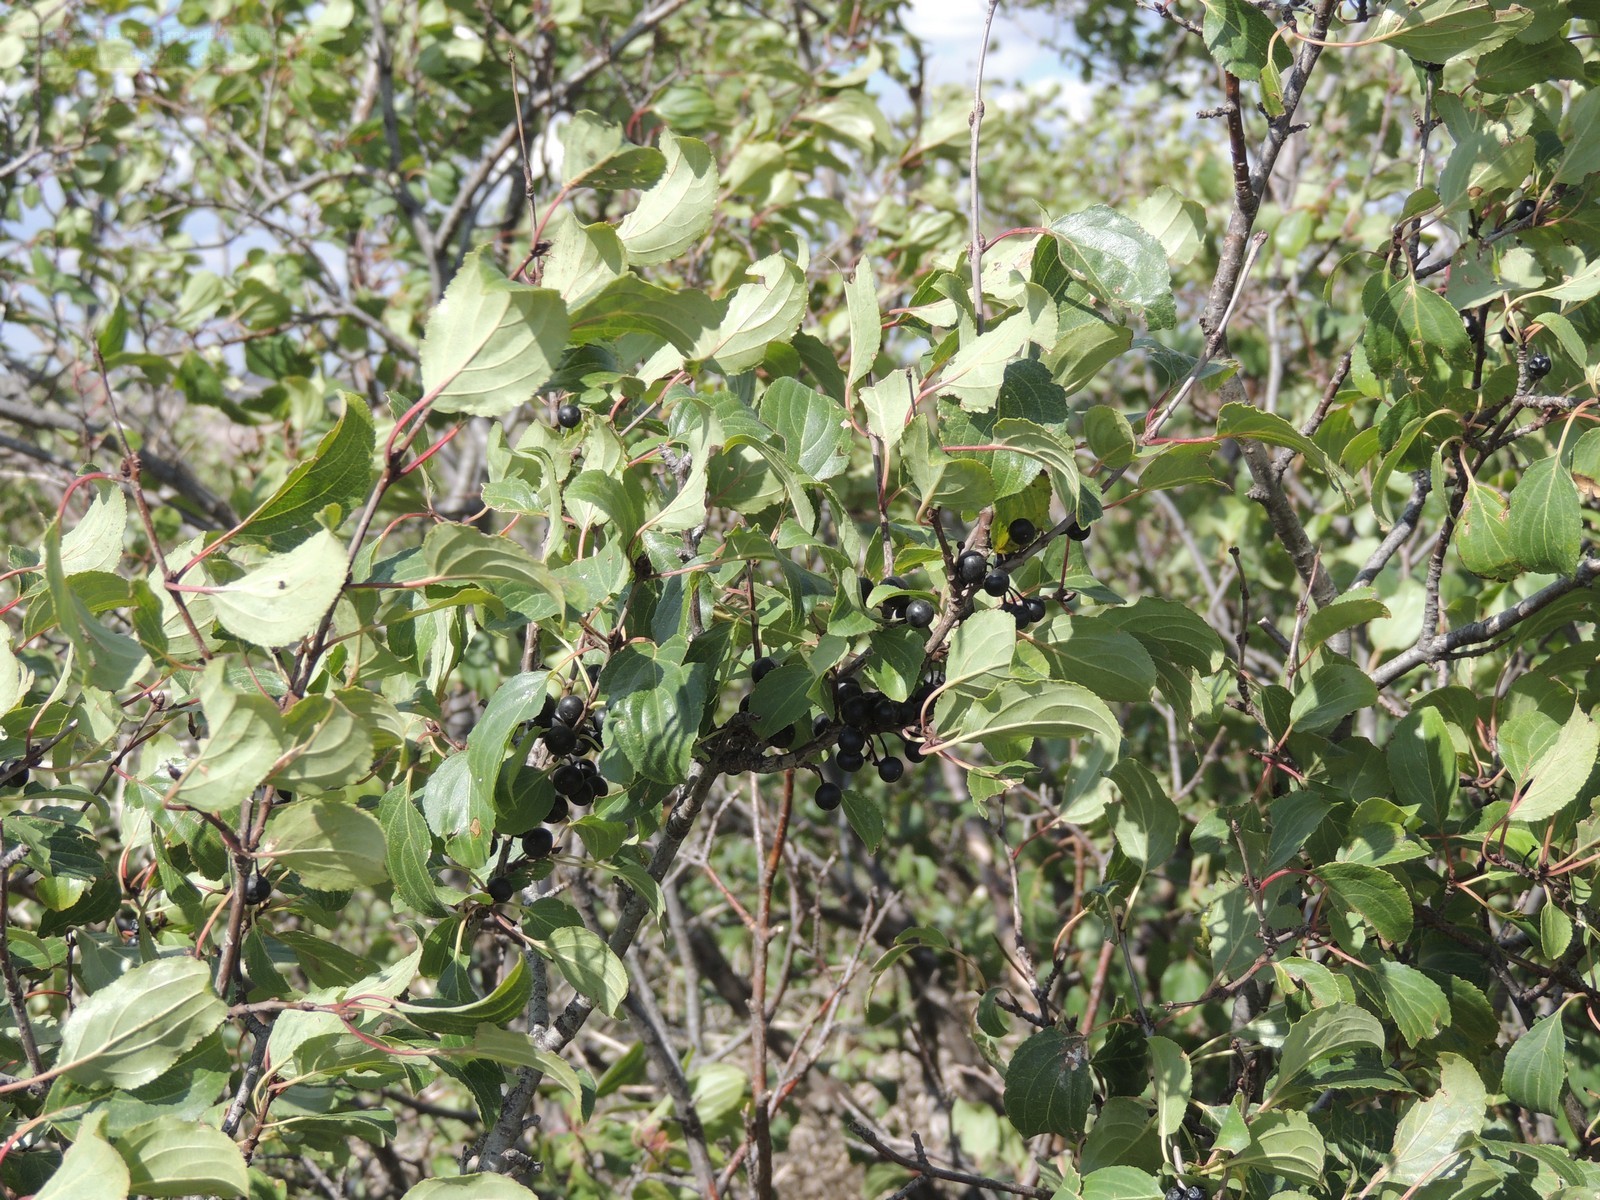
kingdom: Plantae
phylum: Tracheophyta
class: Magnoliopsida
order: Rosales
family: Rhamnaceae
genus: Rhamnus
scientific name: Rhamnus cathartica
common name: Common buckthorn
